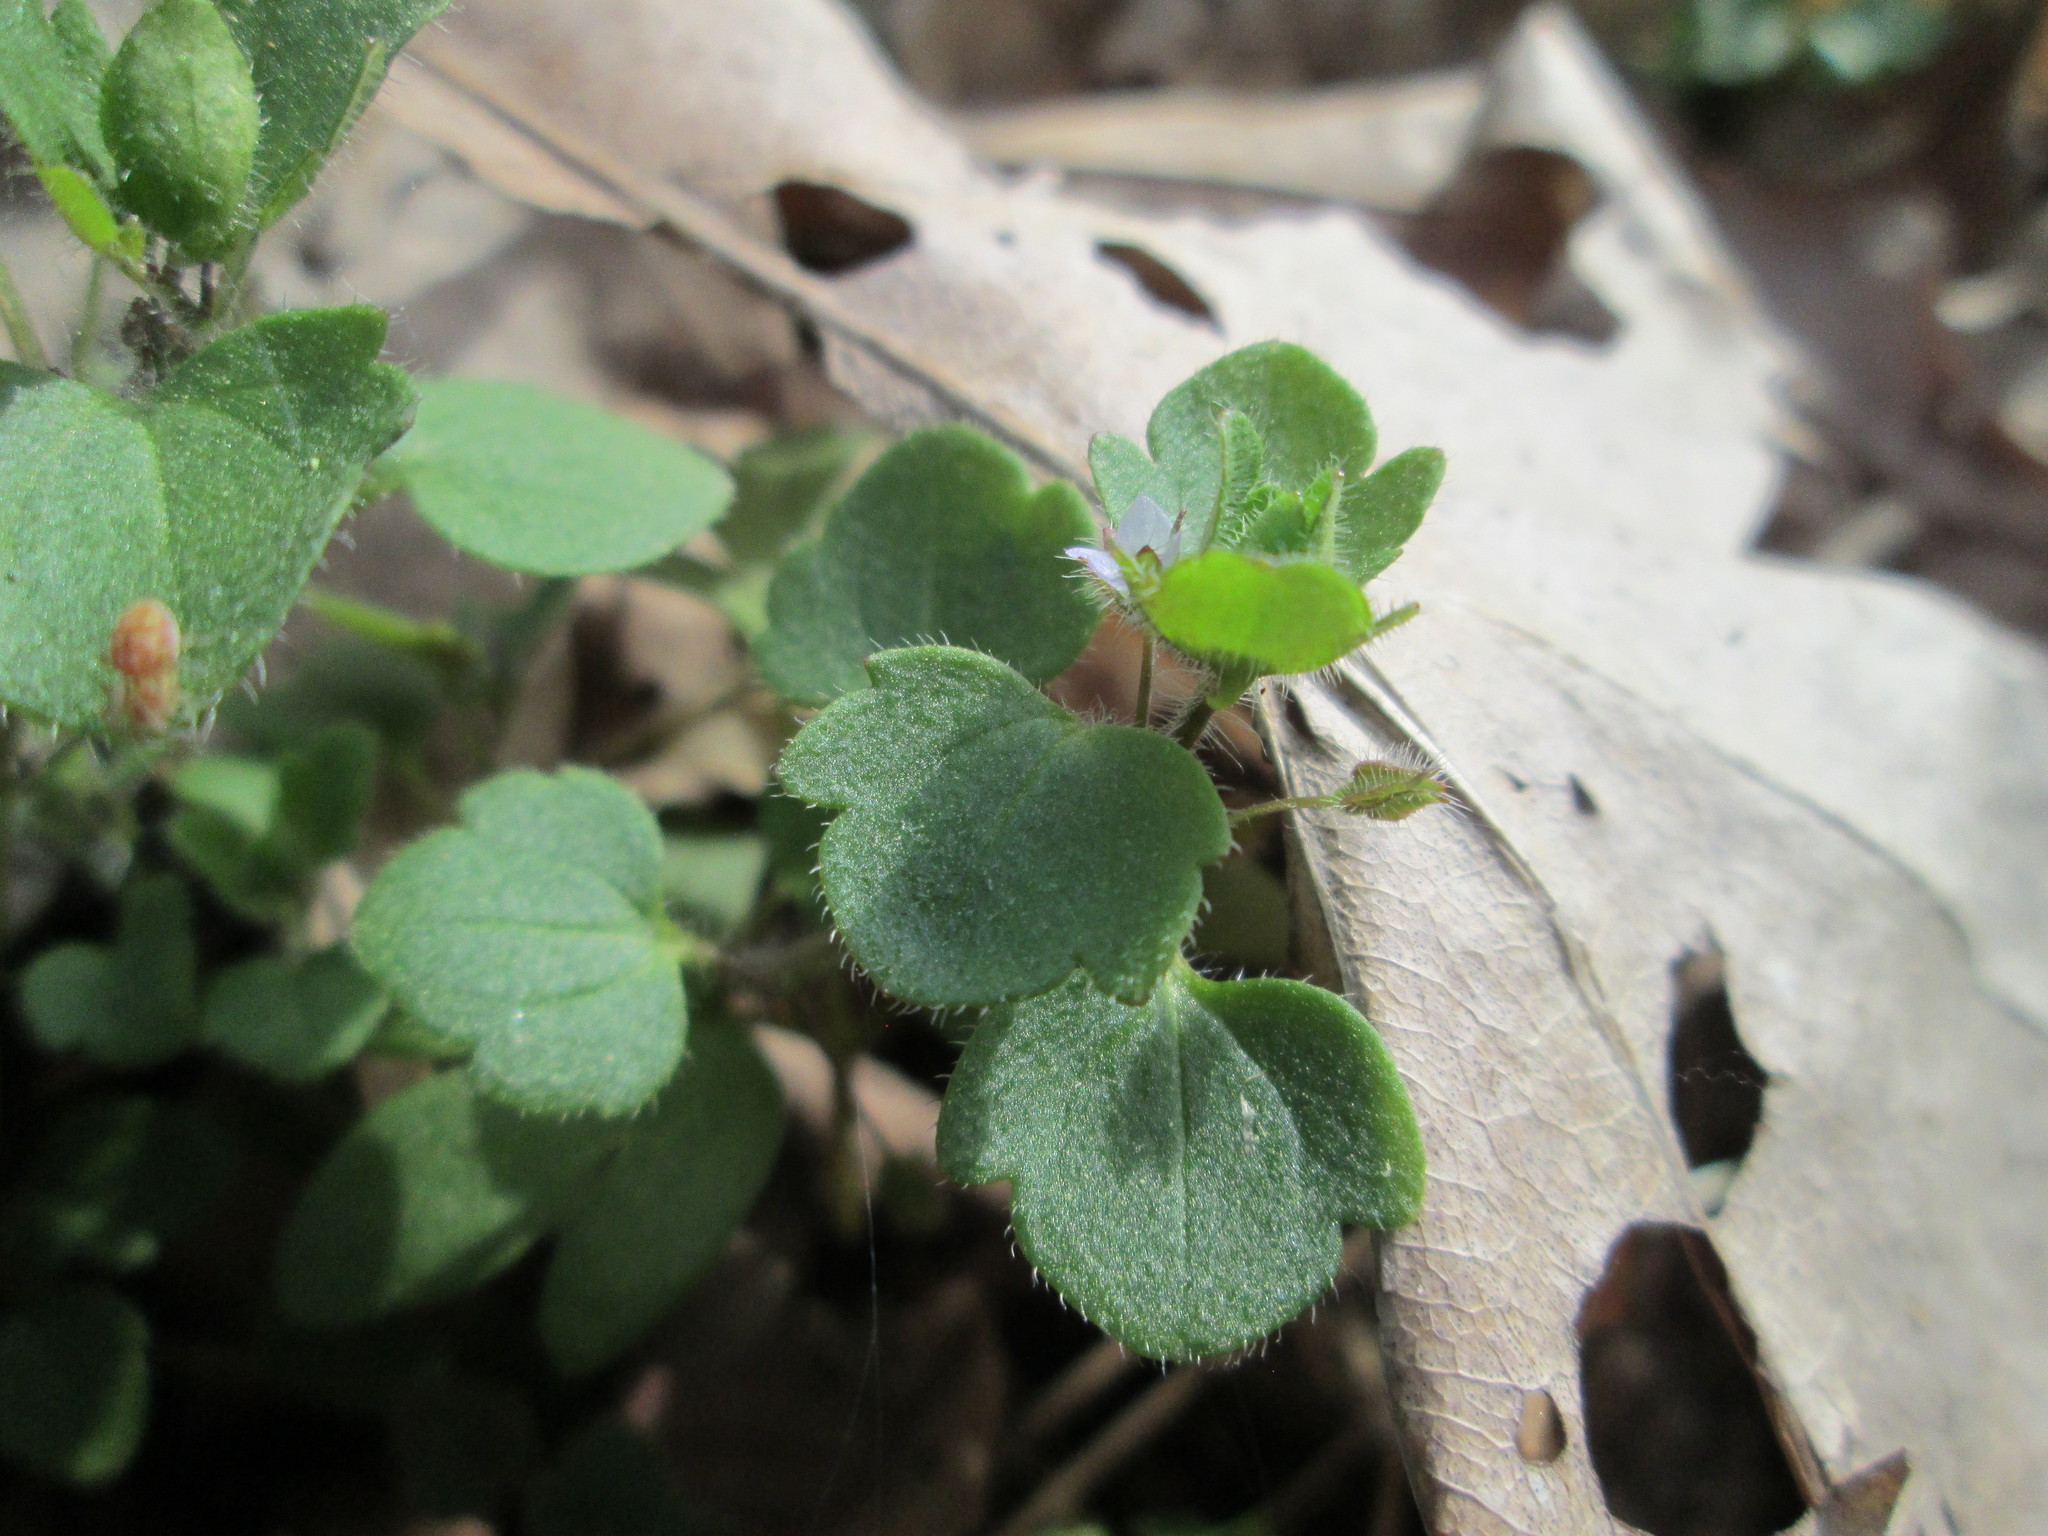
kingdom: Plantae
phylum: Tracheophyta
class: Magnoliopsida
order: Lamiales
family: Plantaginaceae
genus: Veronica
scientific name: Veronica hederifolia
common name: Ivy-leaved speedwell
